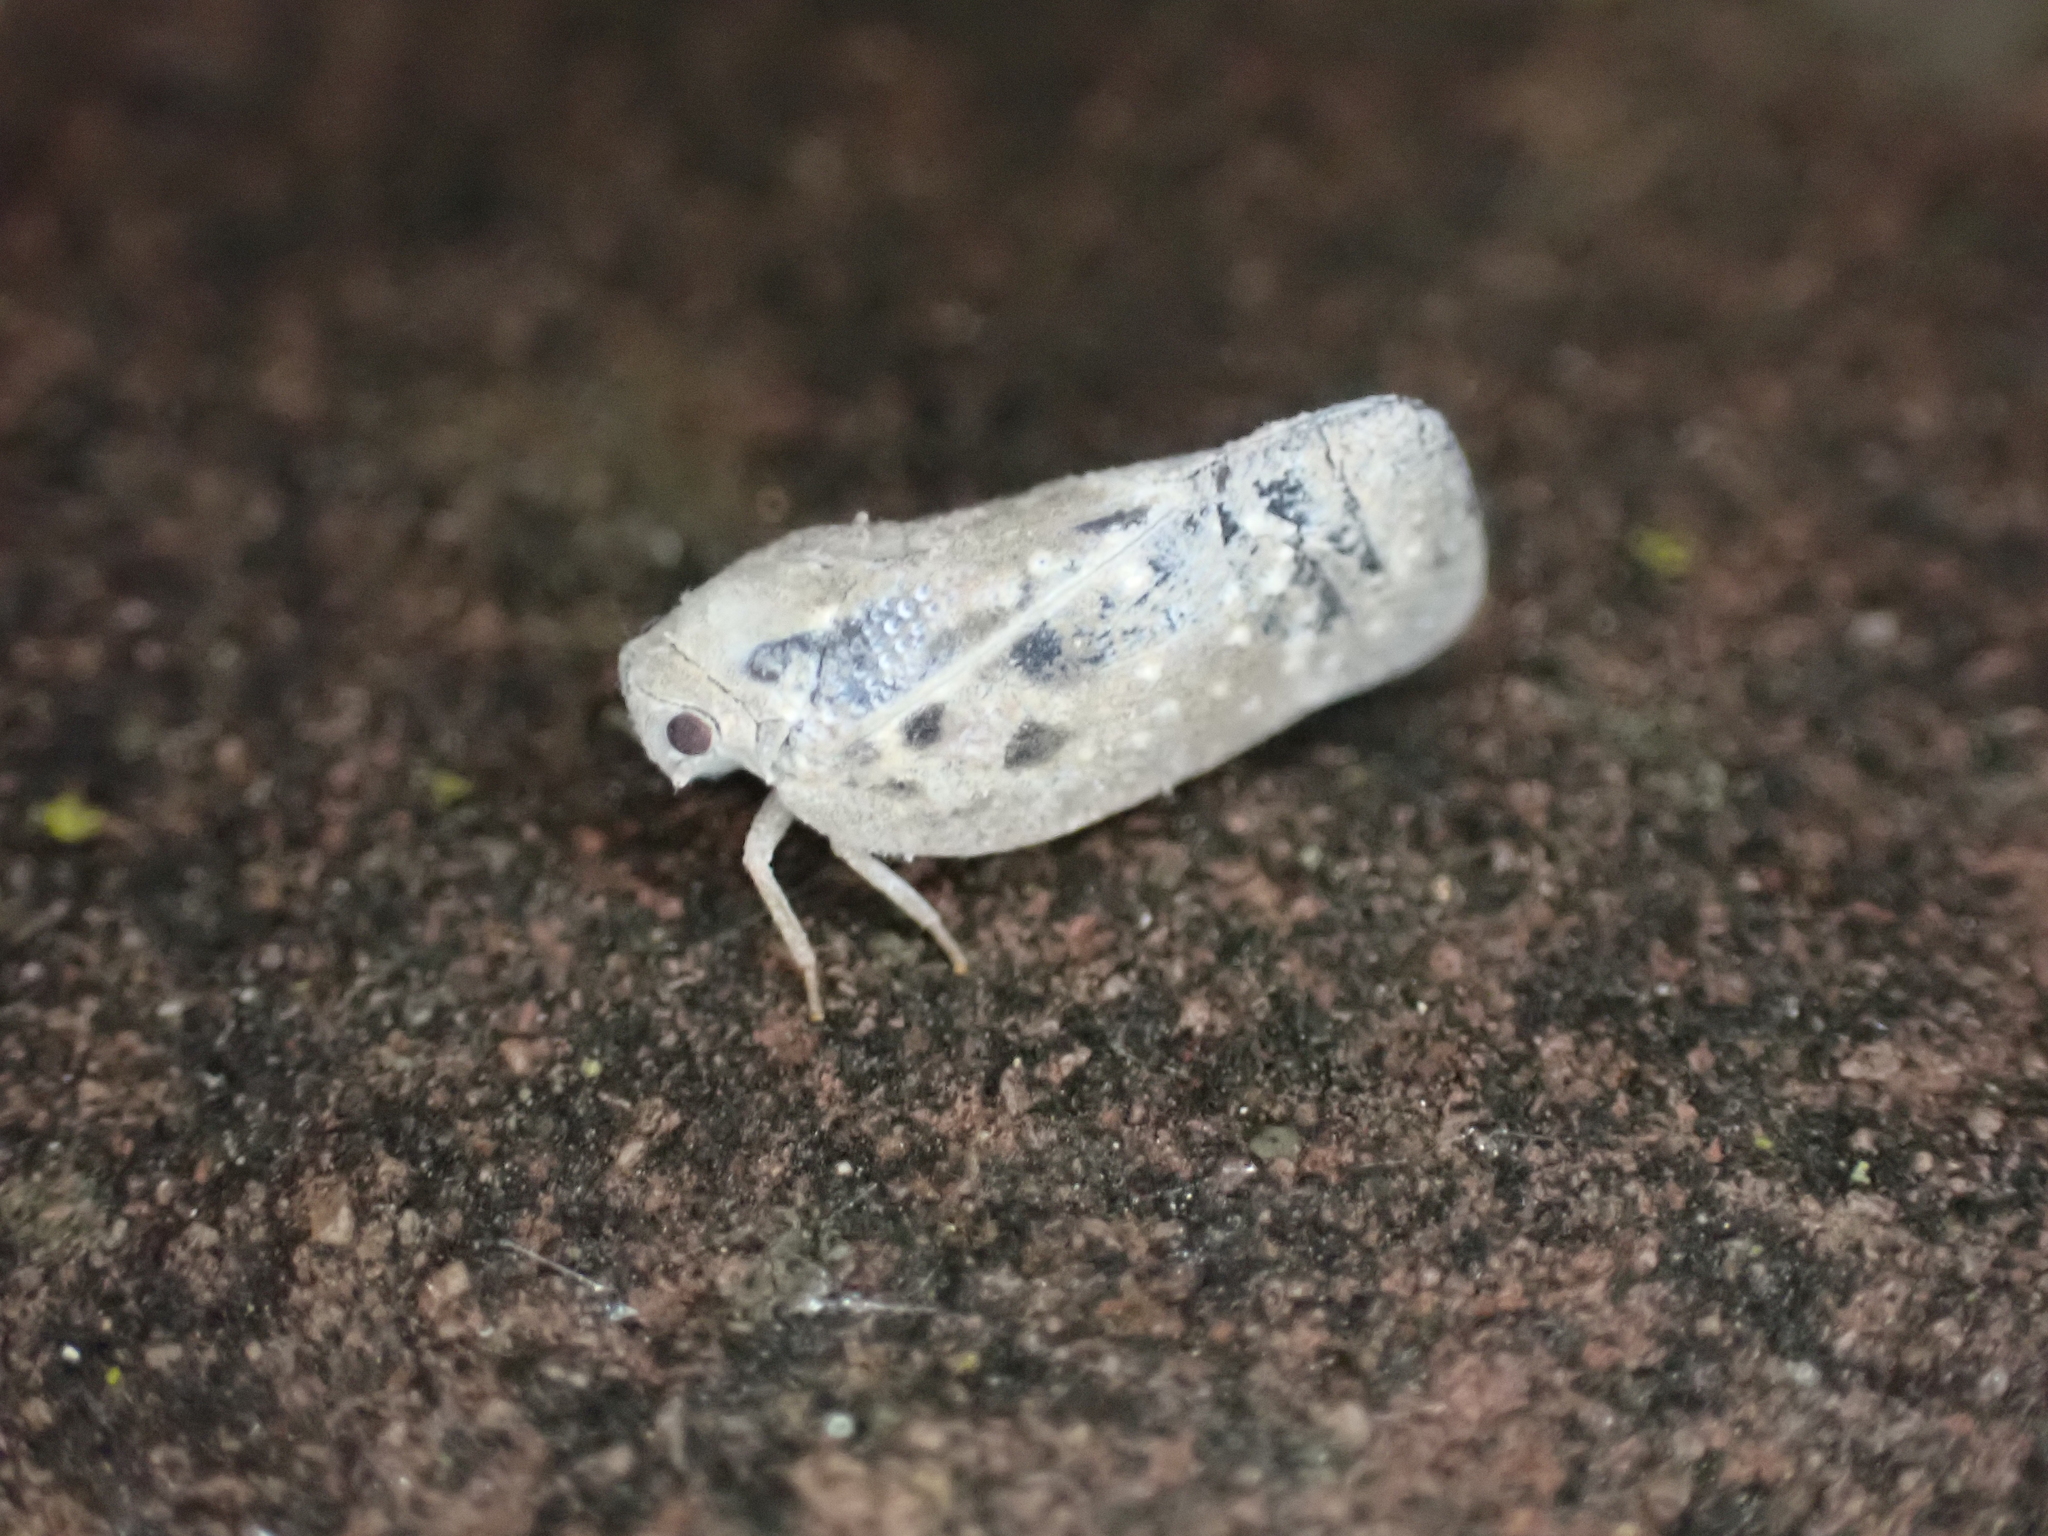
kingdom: Animalia
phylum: Arthropoda
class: Insecta
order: Hemiptera
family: Flatidae
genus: Metcalfa
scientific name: Metcalfa pruinosa
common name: Citrus flatid planthopper
